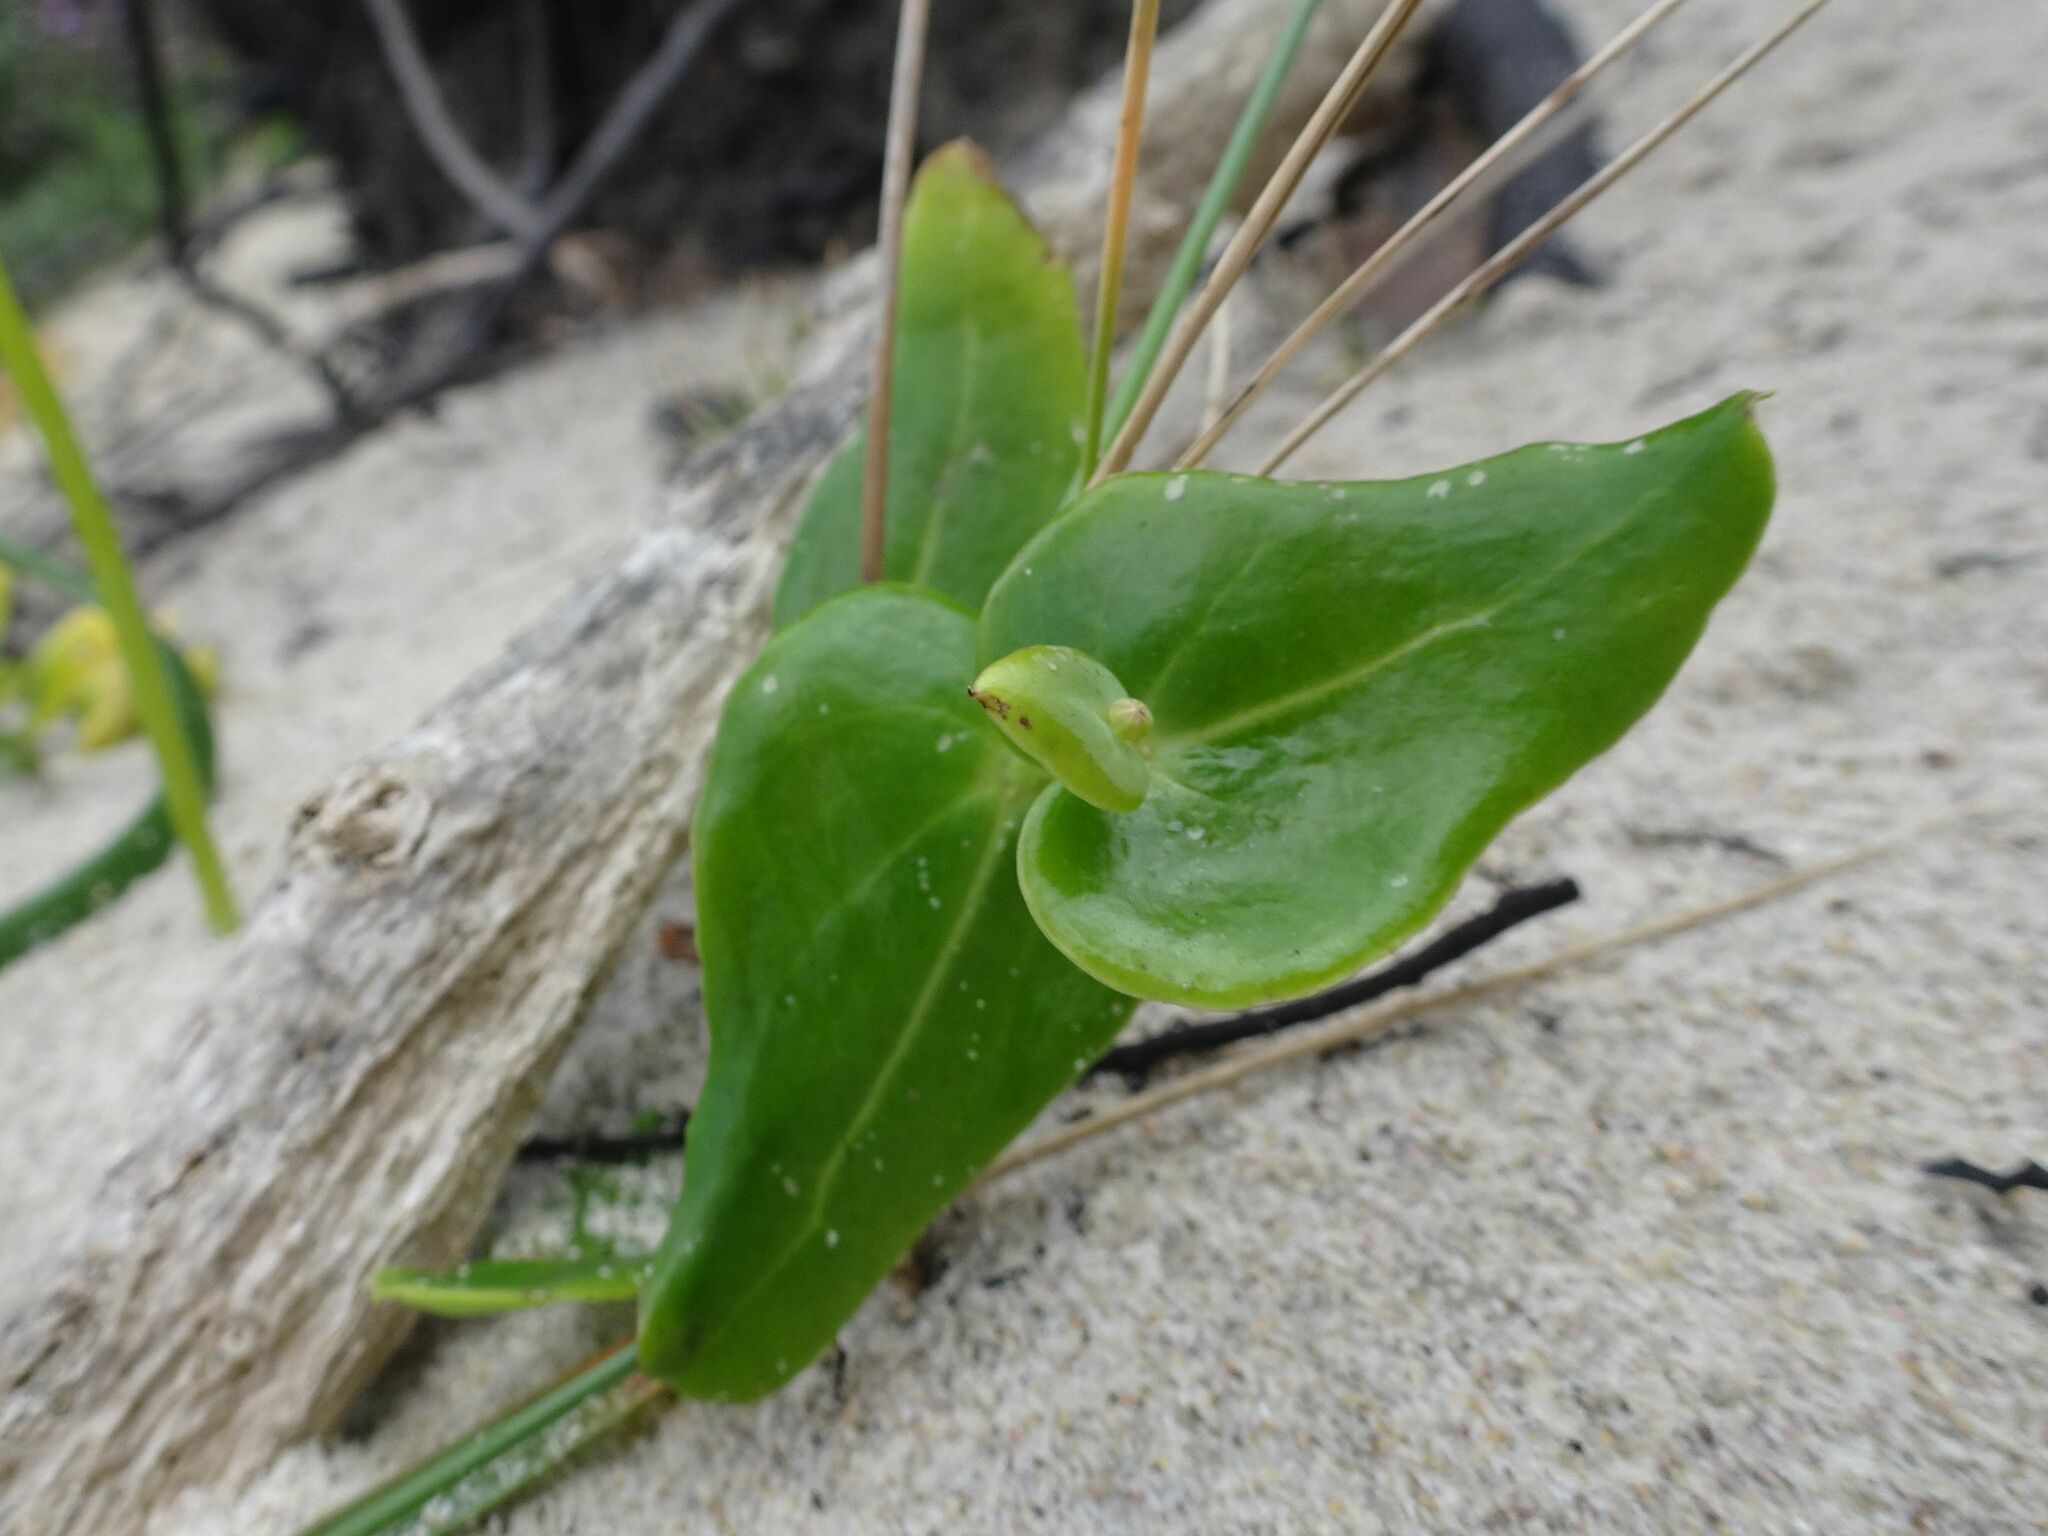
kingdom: Plantae
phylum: Tracheophyta
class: Magnoliopsida
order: Asterales
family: Asteraceae
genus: Othonna
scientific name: Othonna undulosa
